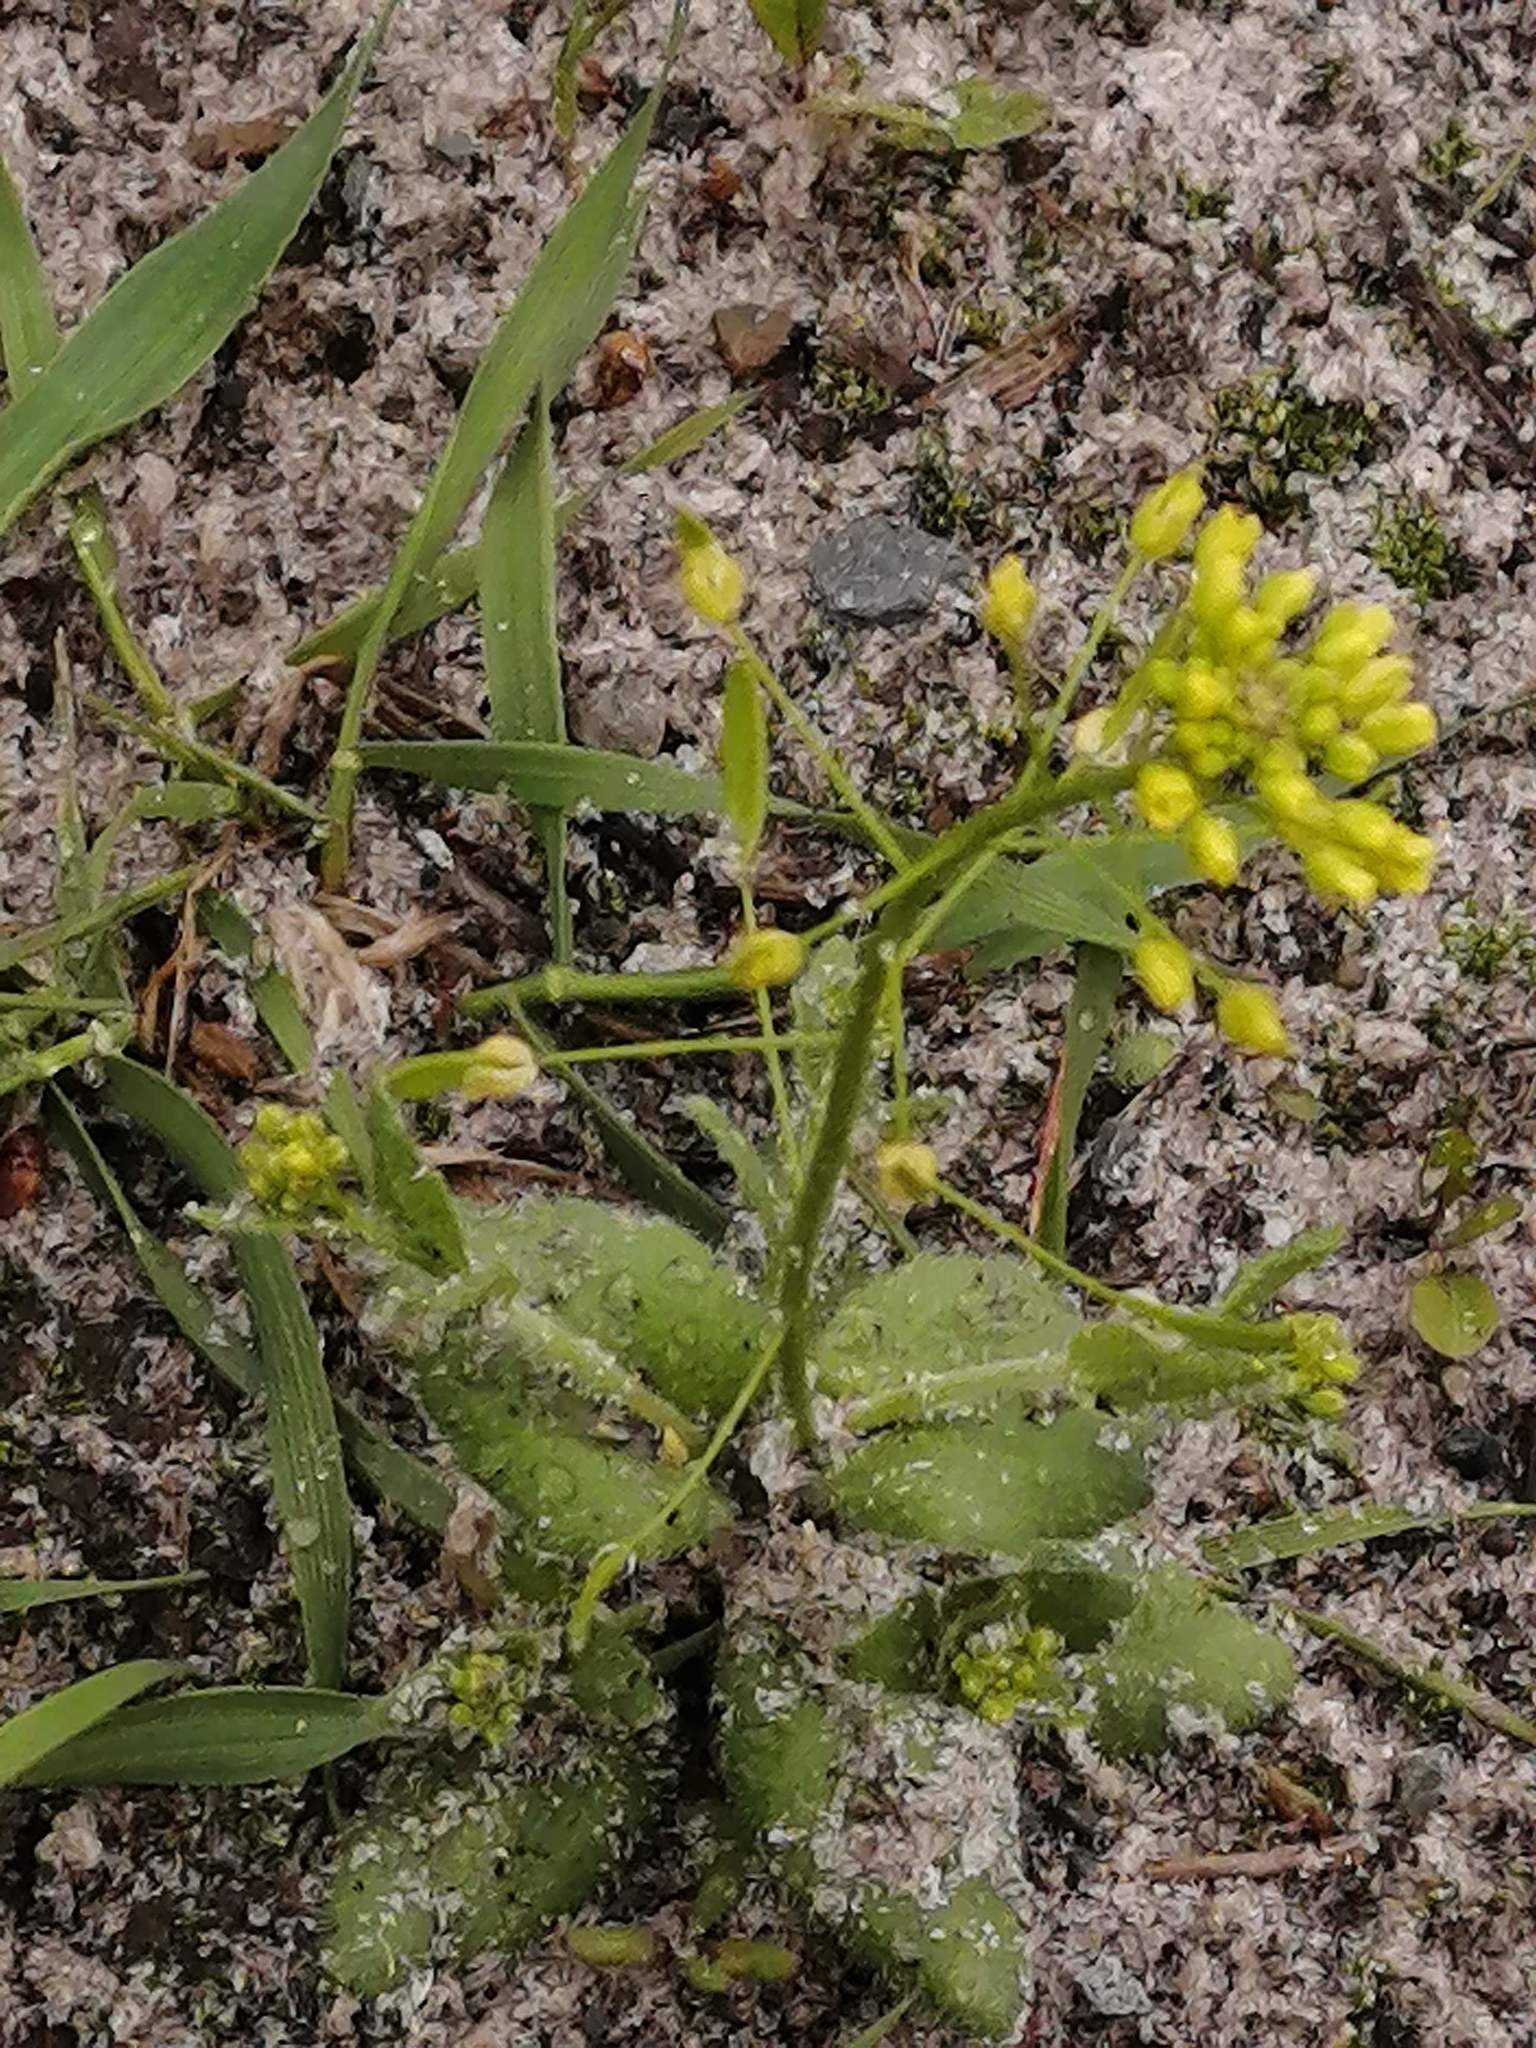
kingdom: Plantae
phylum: Tracheophyta
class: Magnoliopsida
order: Brassicales
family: Brassicaceae
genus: Draba
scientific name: Draba nemorosa
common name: Wood whitlow-grass
